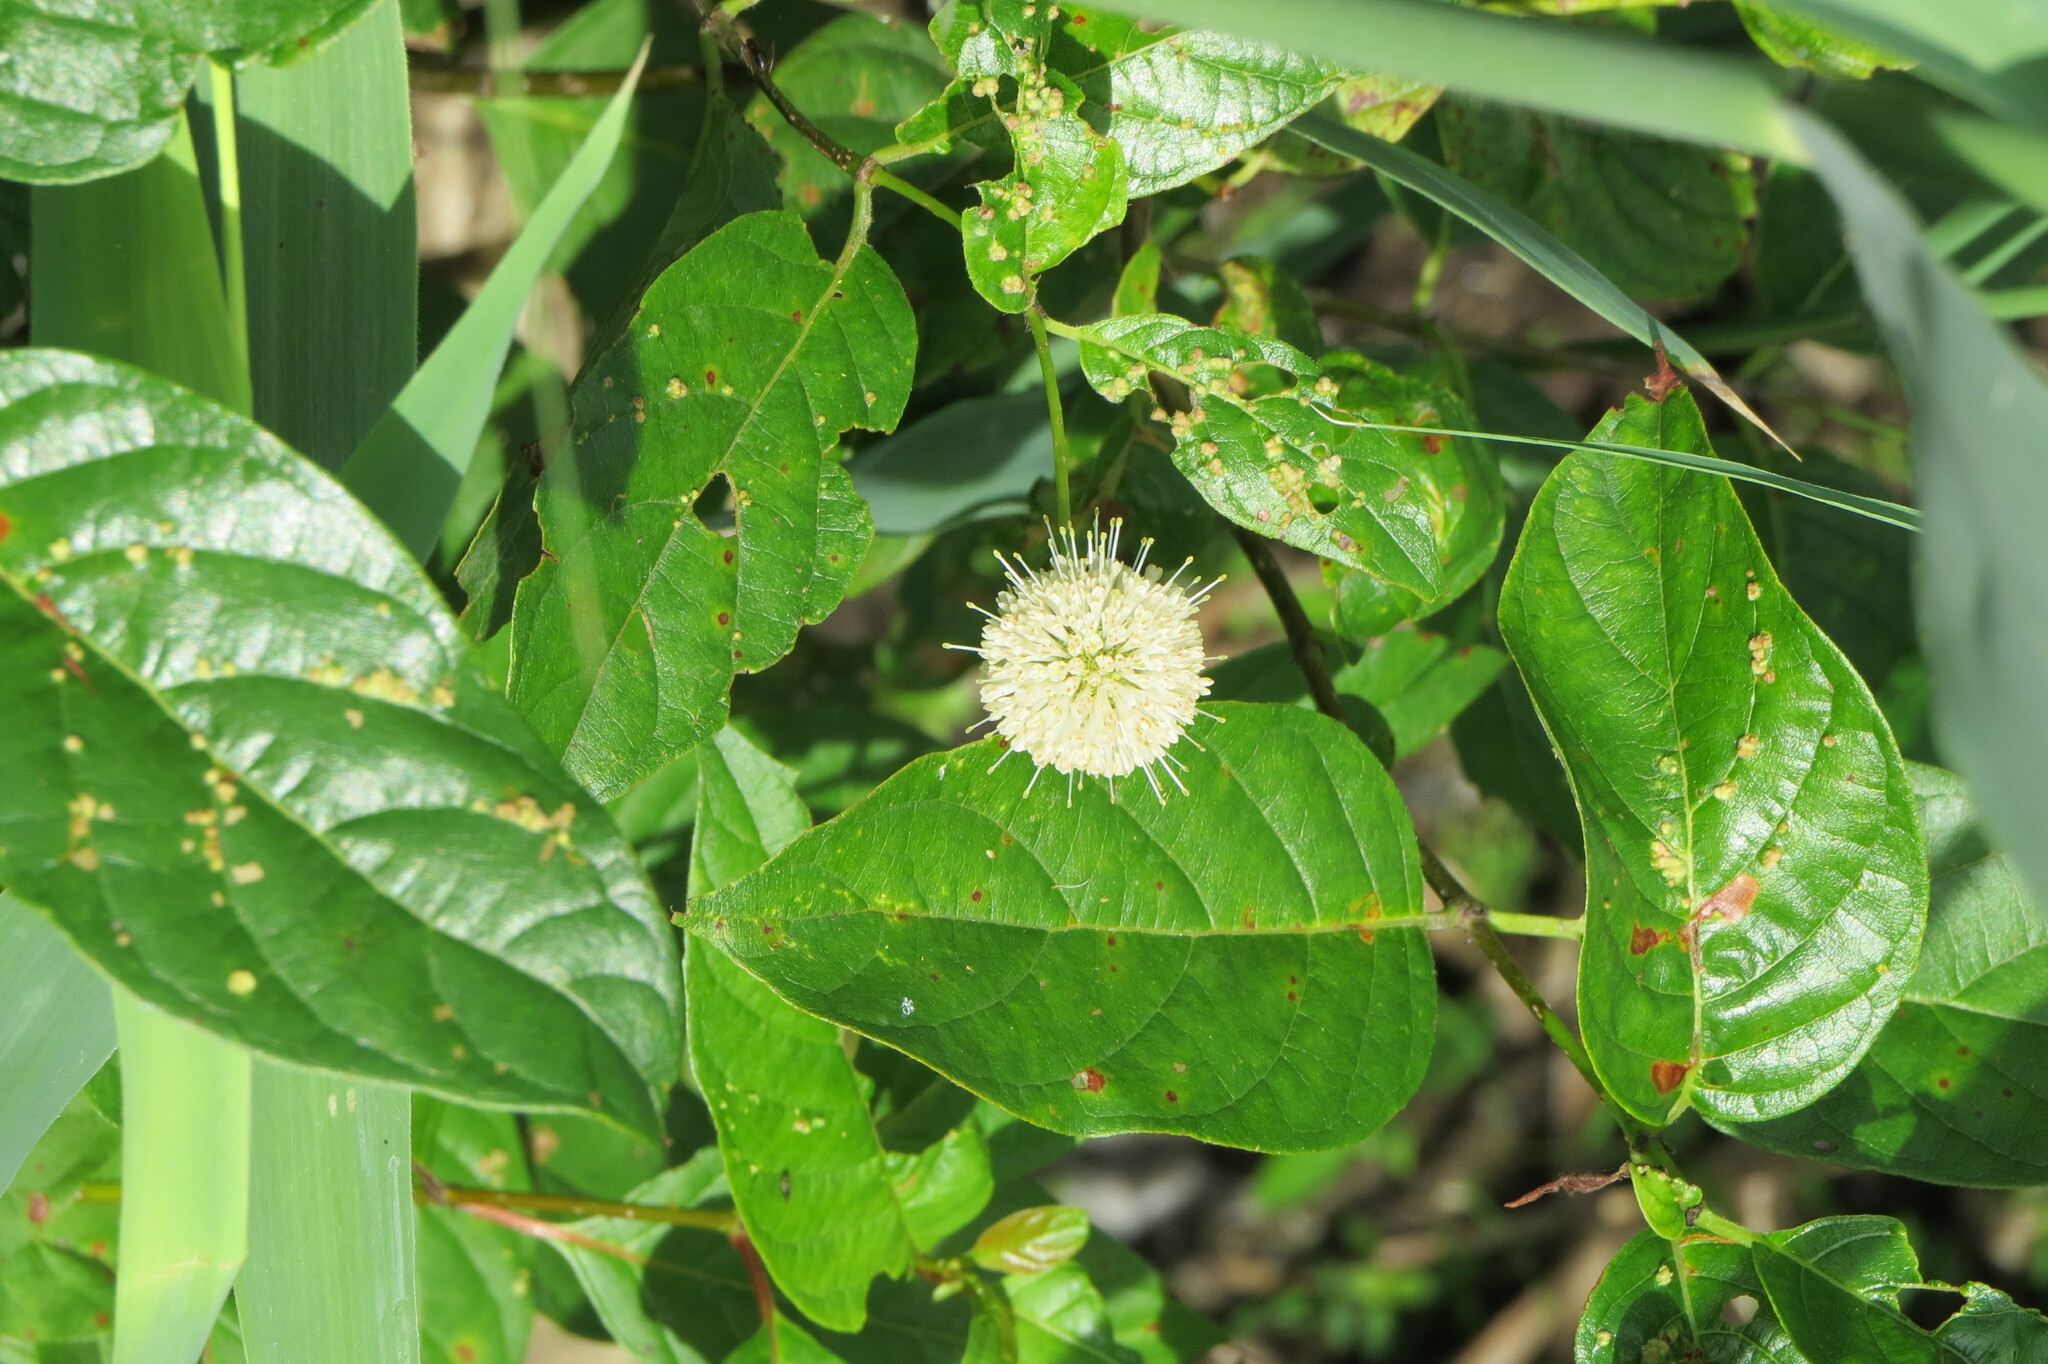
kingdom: Plantae
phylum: Tracheophyta
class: Magnoliopsida
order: Gentianales
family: Rubiaceae
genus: Cephalanthus
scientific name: Cephalanthus occidentalis
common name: Button-willow
